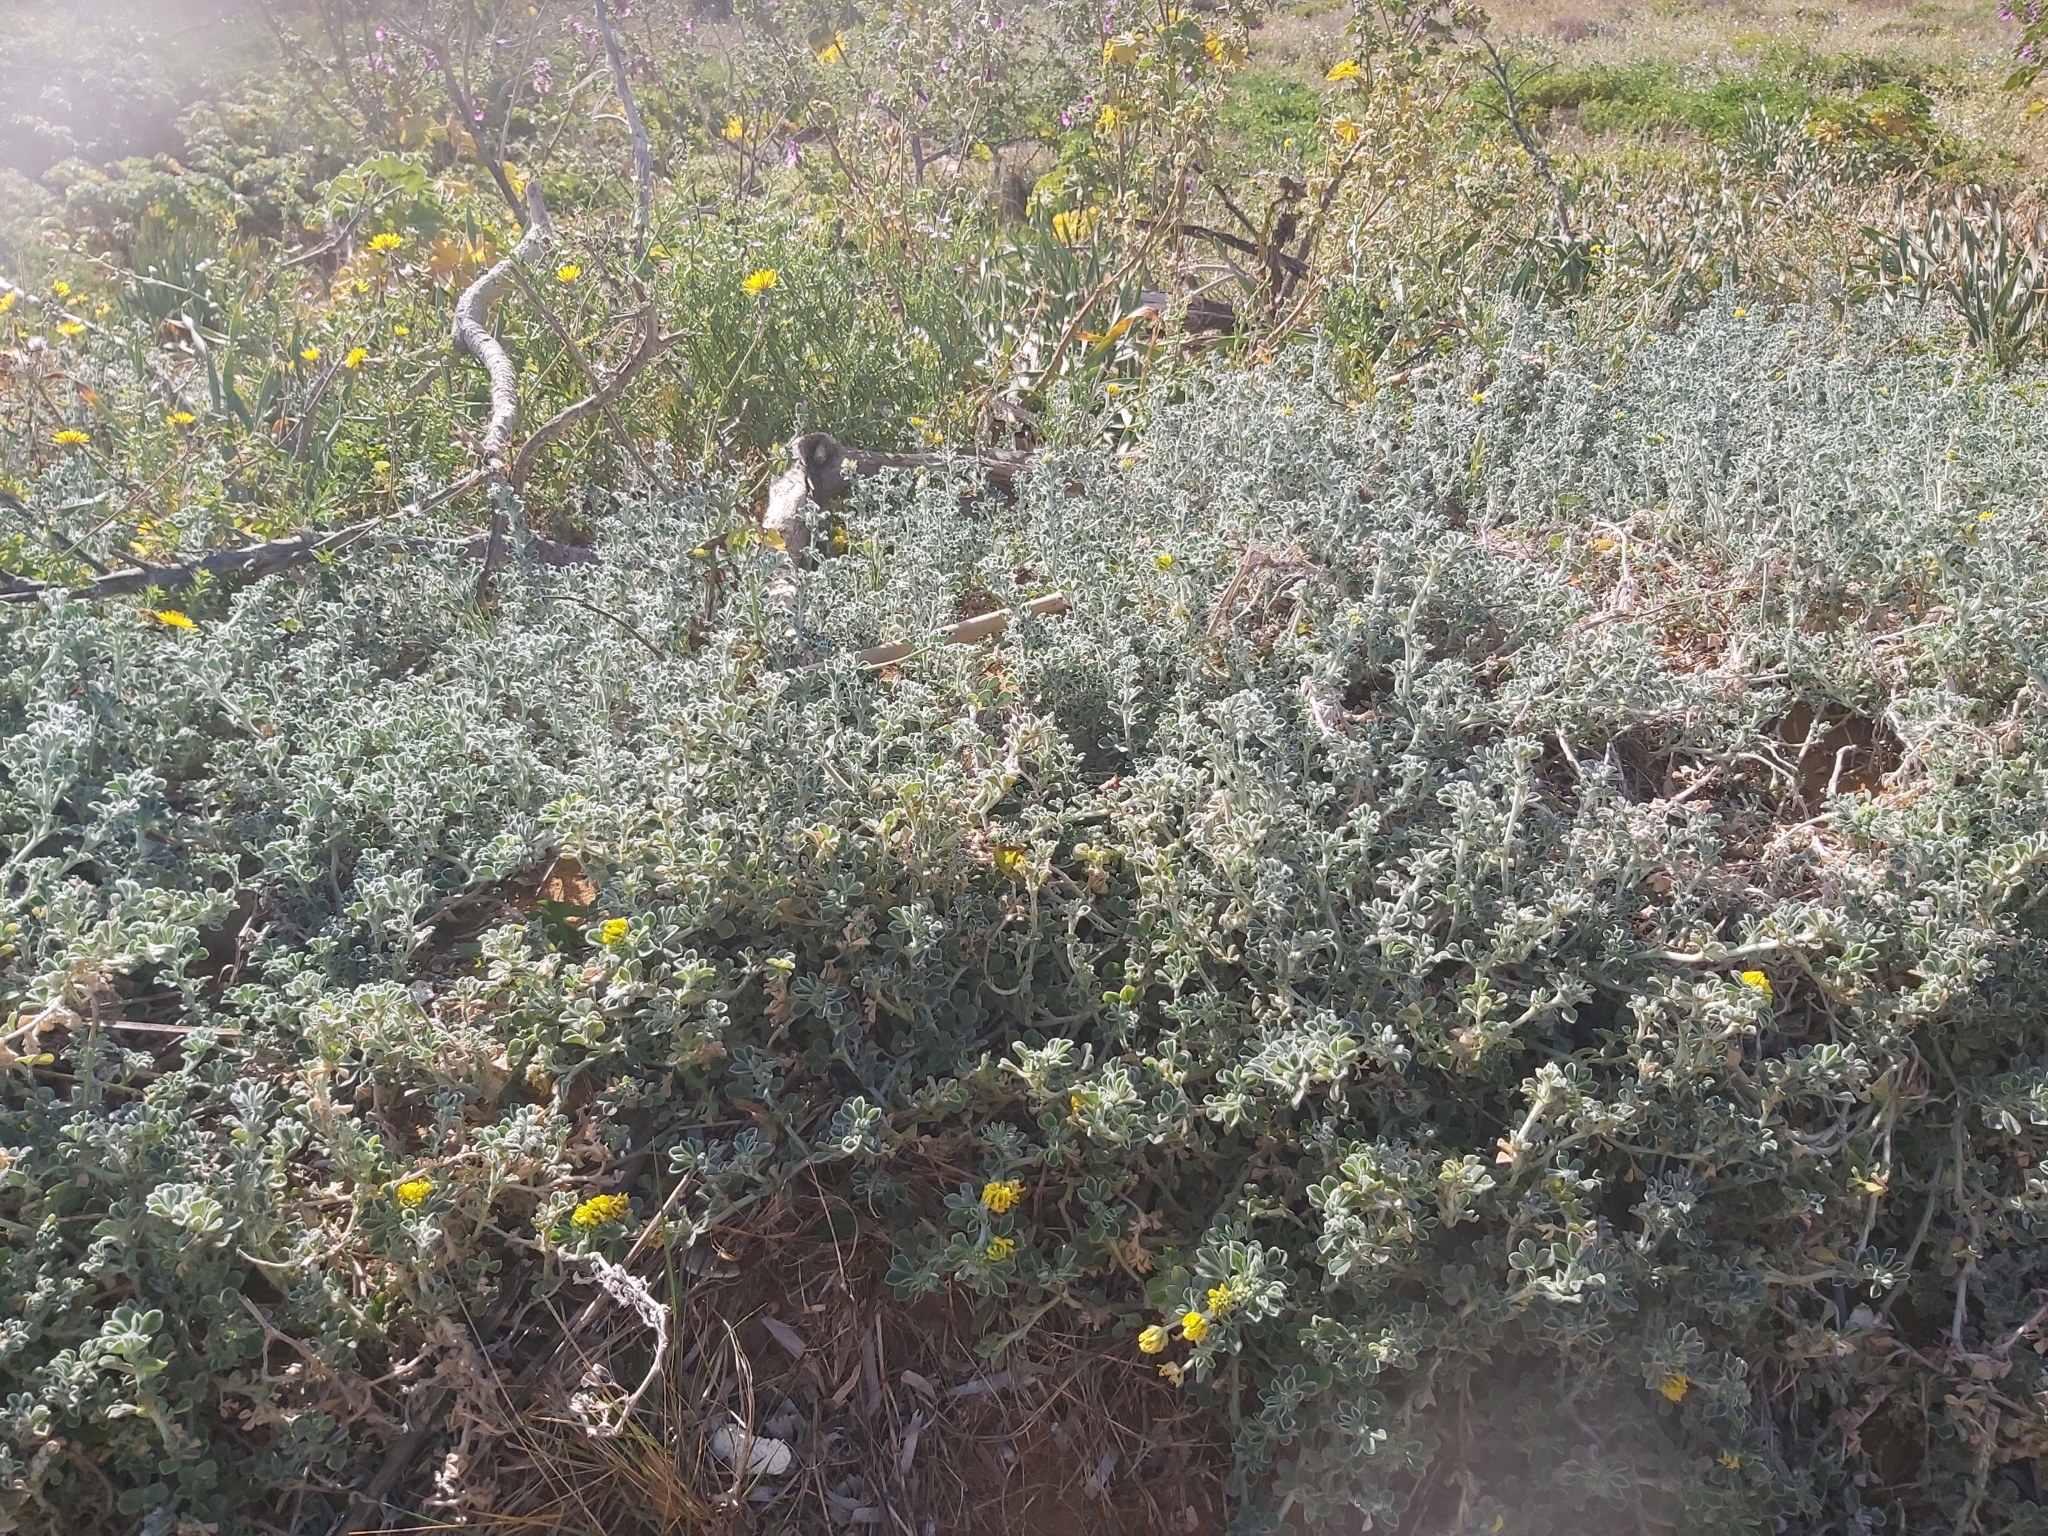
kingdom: Plantae
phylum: Tracheophyta
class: Magnoliopsida
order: Fabales
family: Fabaceae
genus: Medicago
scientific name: Medicago marina
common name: Sea medick
